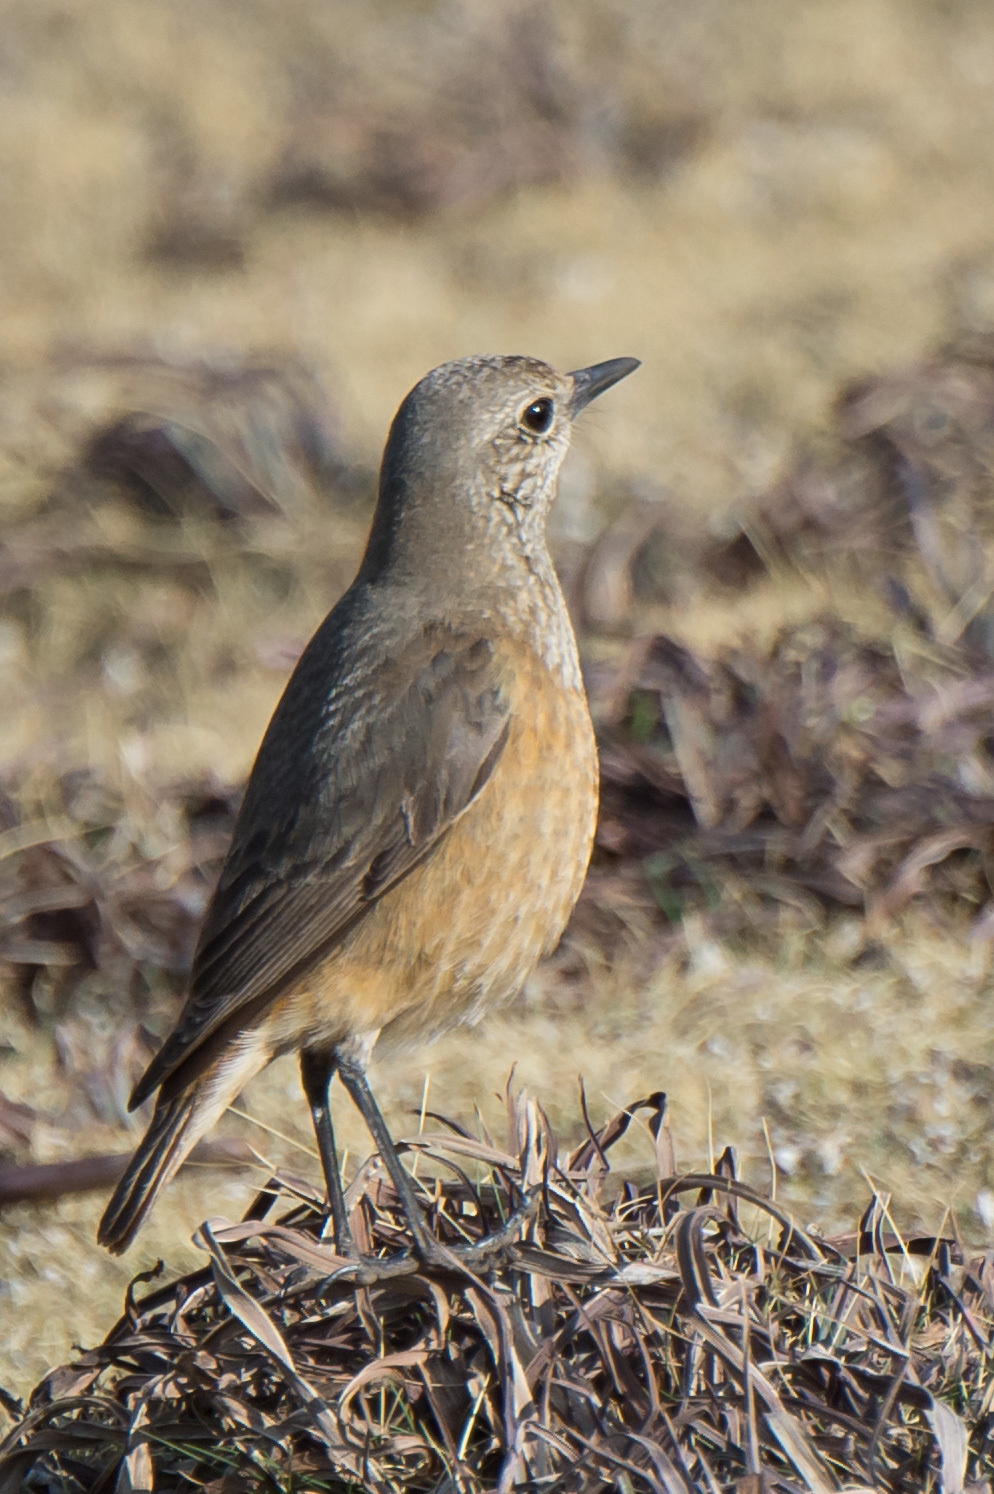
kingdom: Animalia
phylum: Chordata
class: Aves
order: Passeriformes
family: Muscicapidae
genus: Monticola
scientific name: Monticola explorator
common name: Sentinel rock thrush
